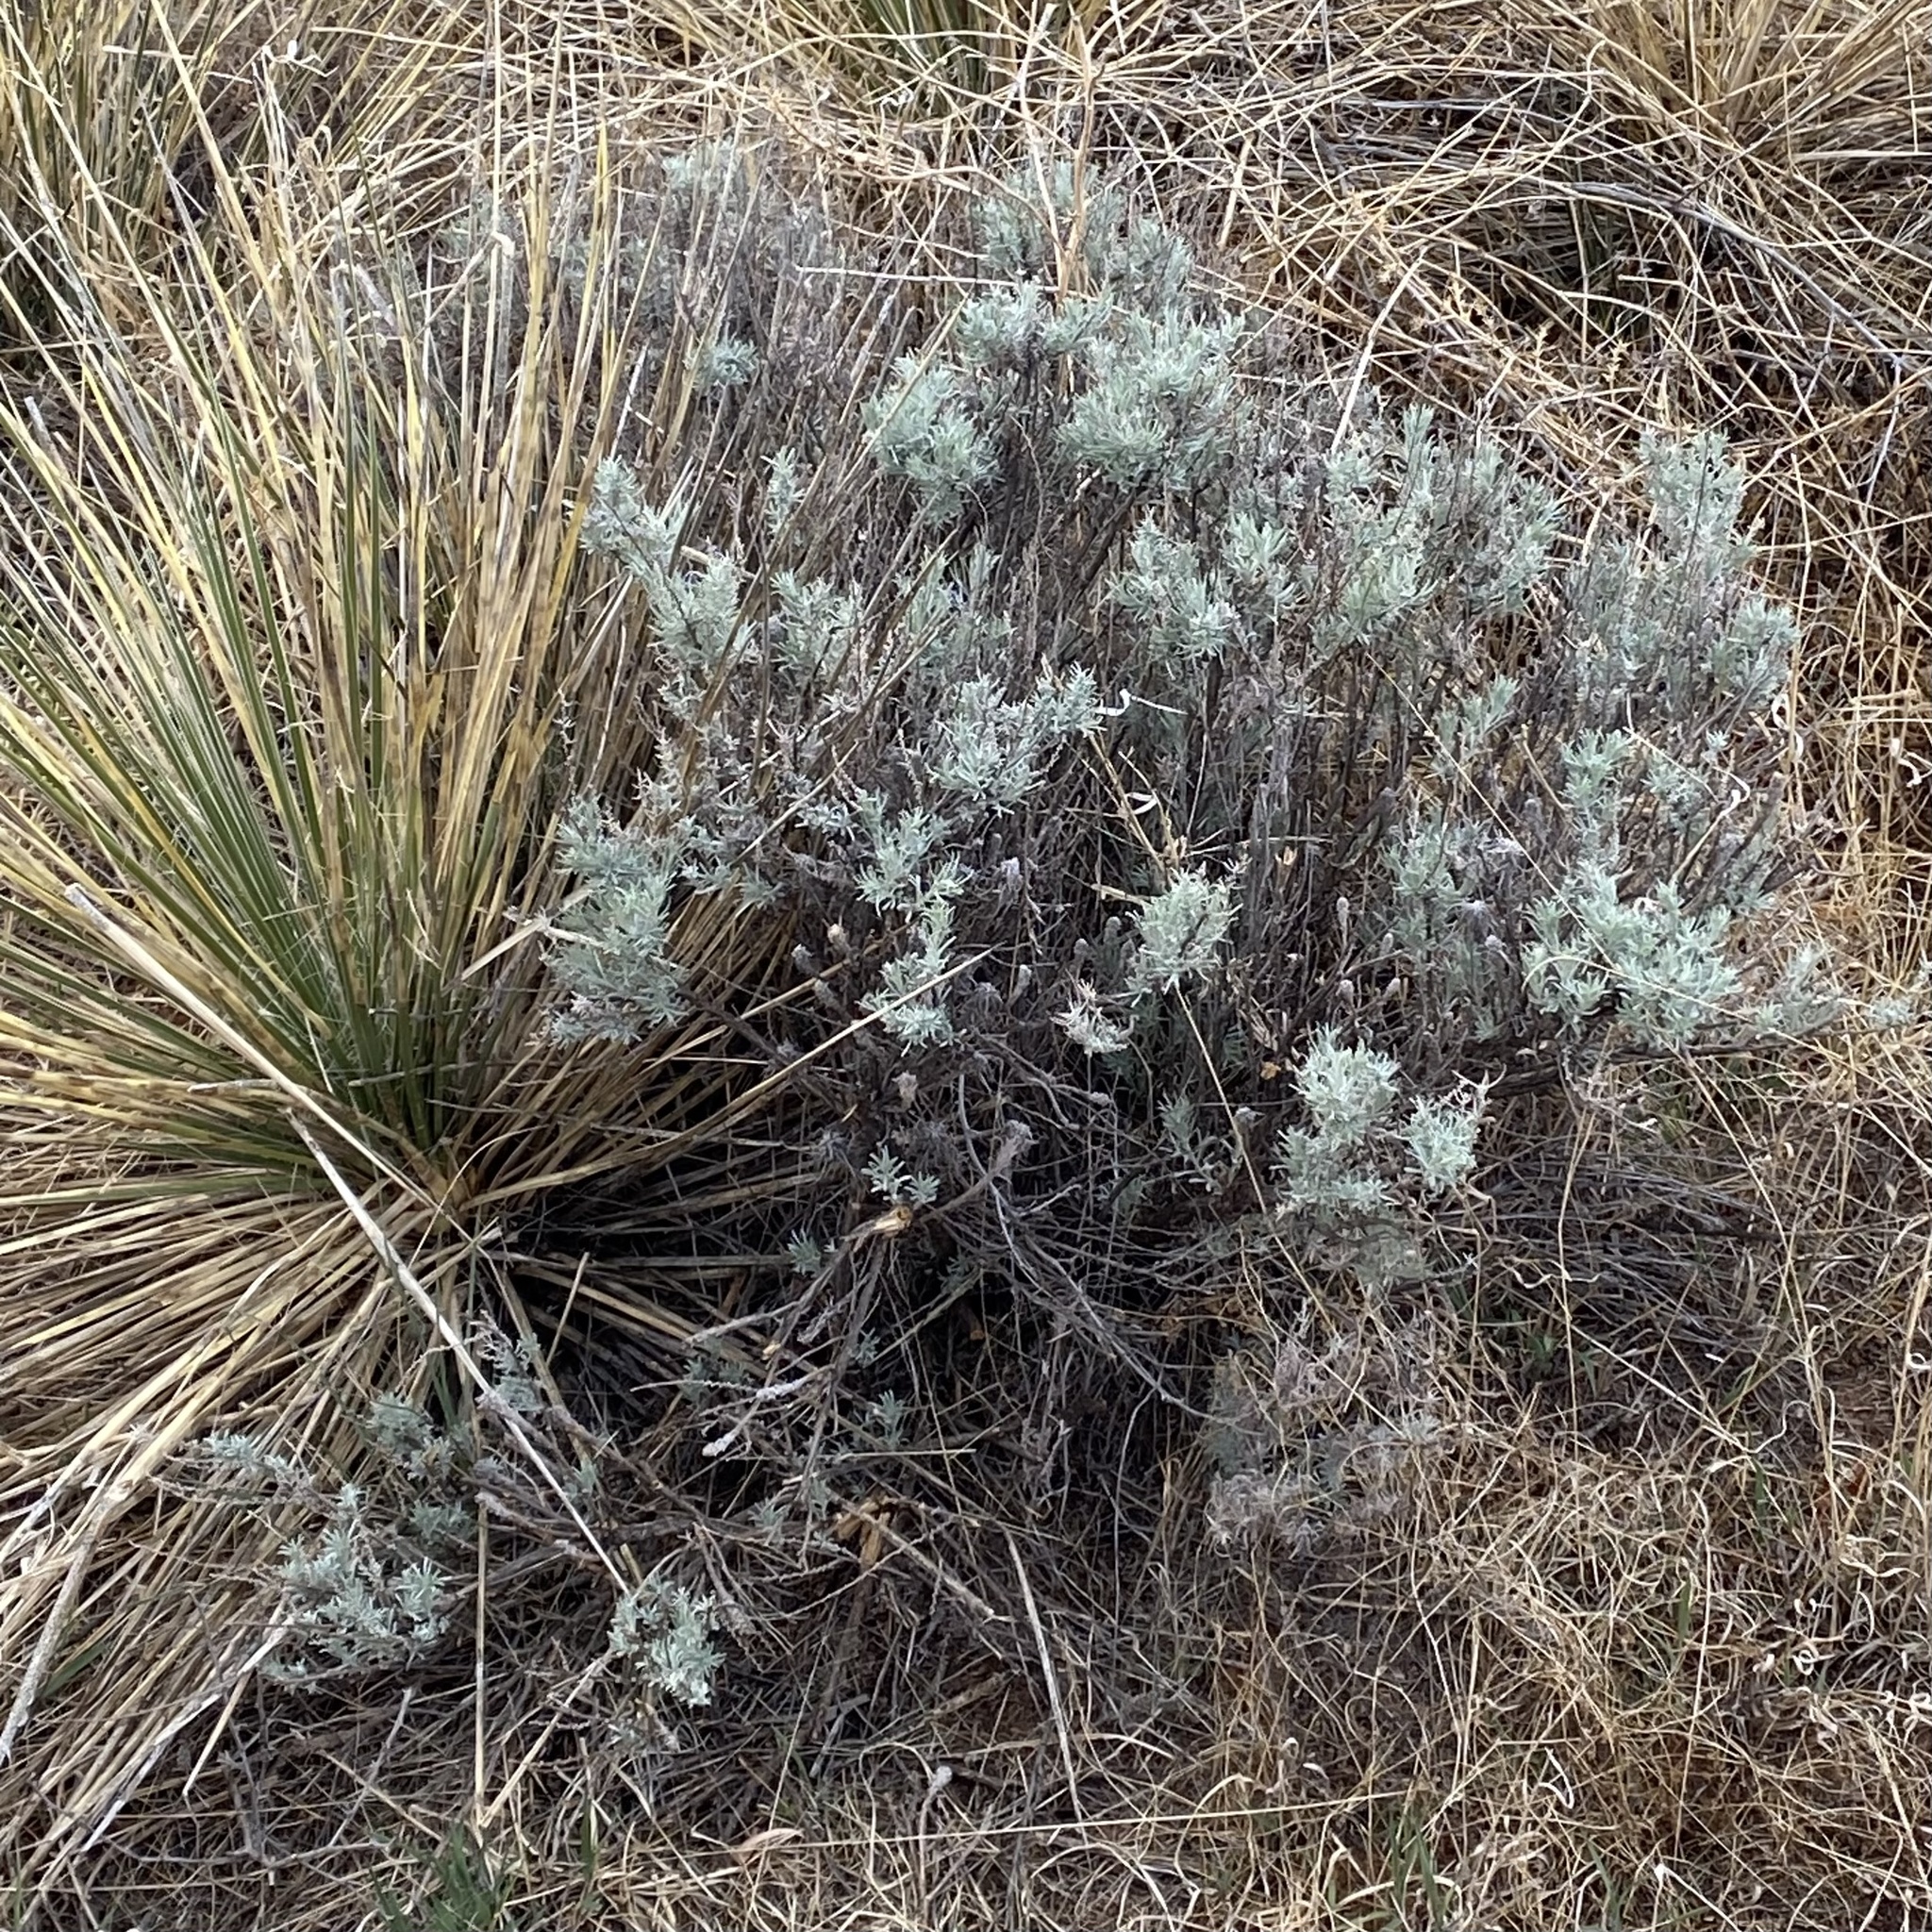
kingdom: Plantae
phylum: Tracheophyta
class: Magnoliopsida
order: Asterales
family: Asteraceae
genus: Artemisia
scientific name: Artemisia filifolia
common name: Sand-sage
